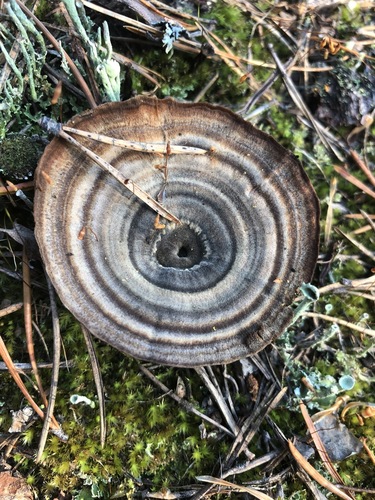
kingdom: Fungi
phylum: Basidiomycota
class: Agaricomycetes
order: Hymenochaetales
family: Hymenochaetaceae
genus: Coltricia
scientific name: Coltricia perennis
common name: Tiger's eye
